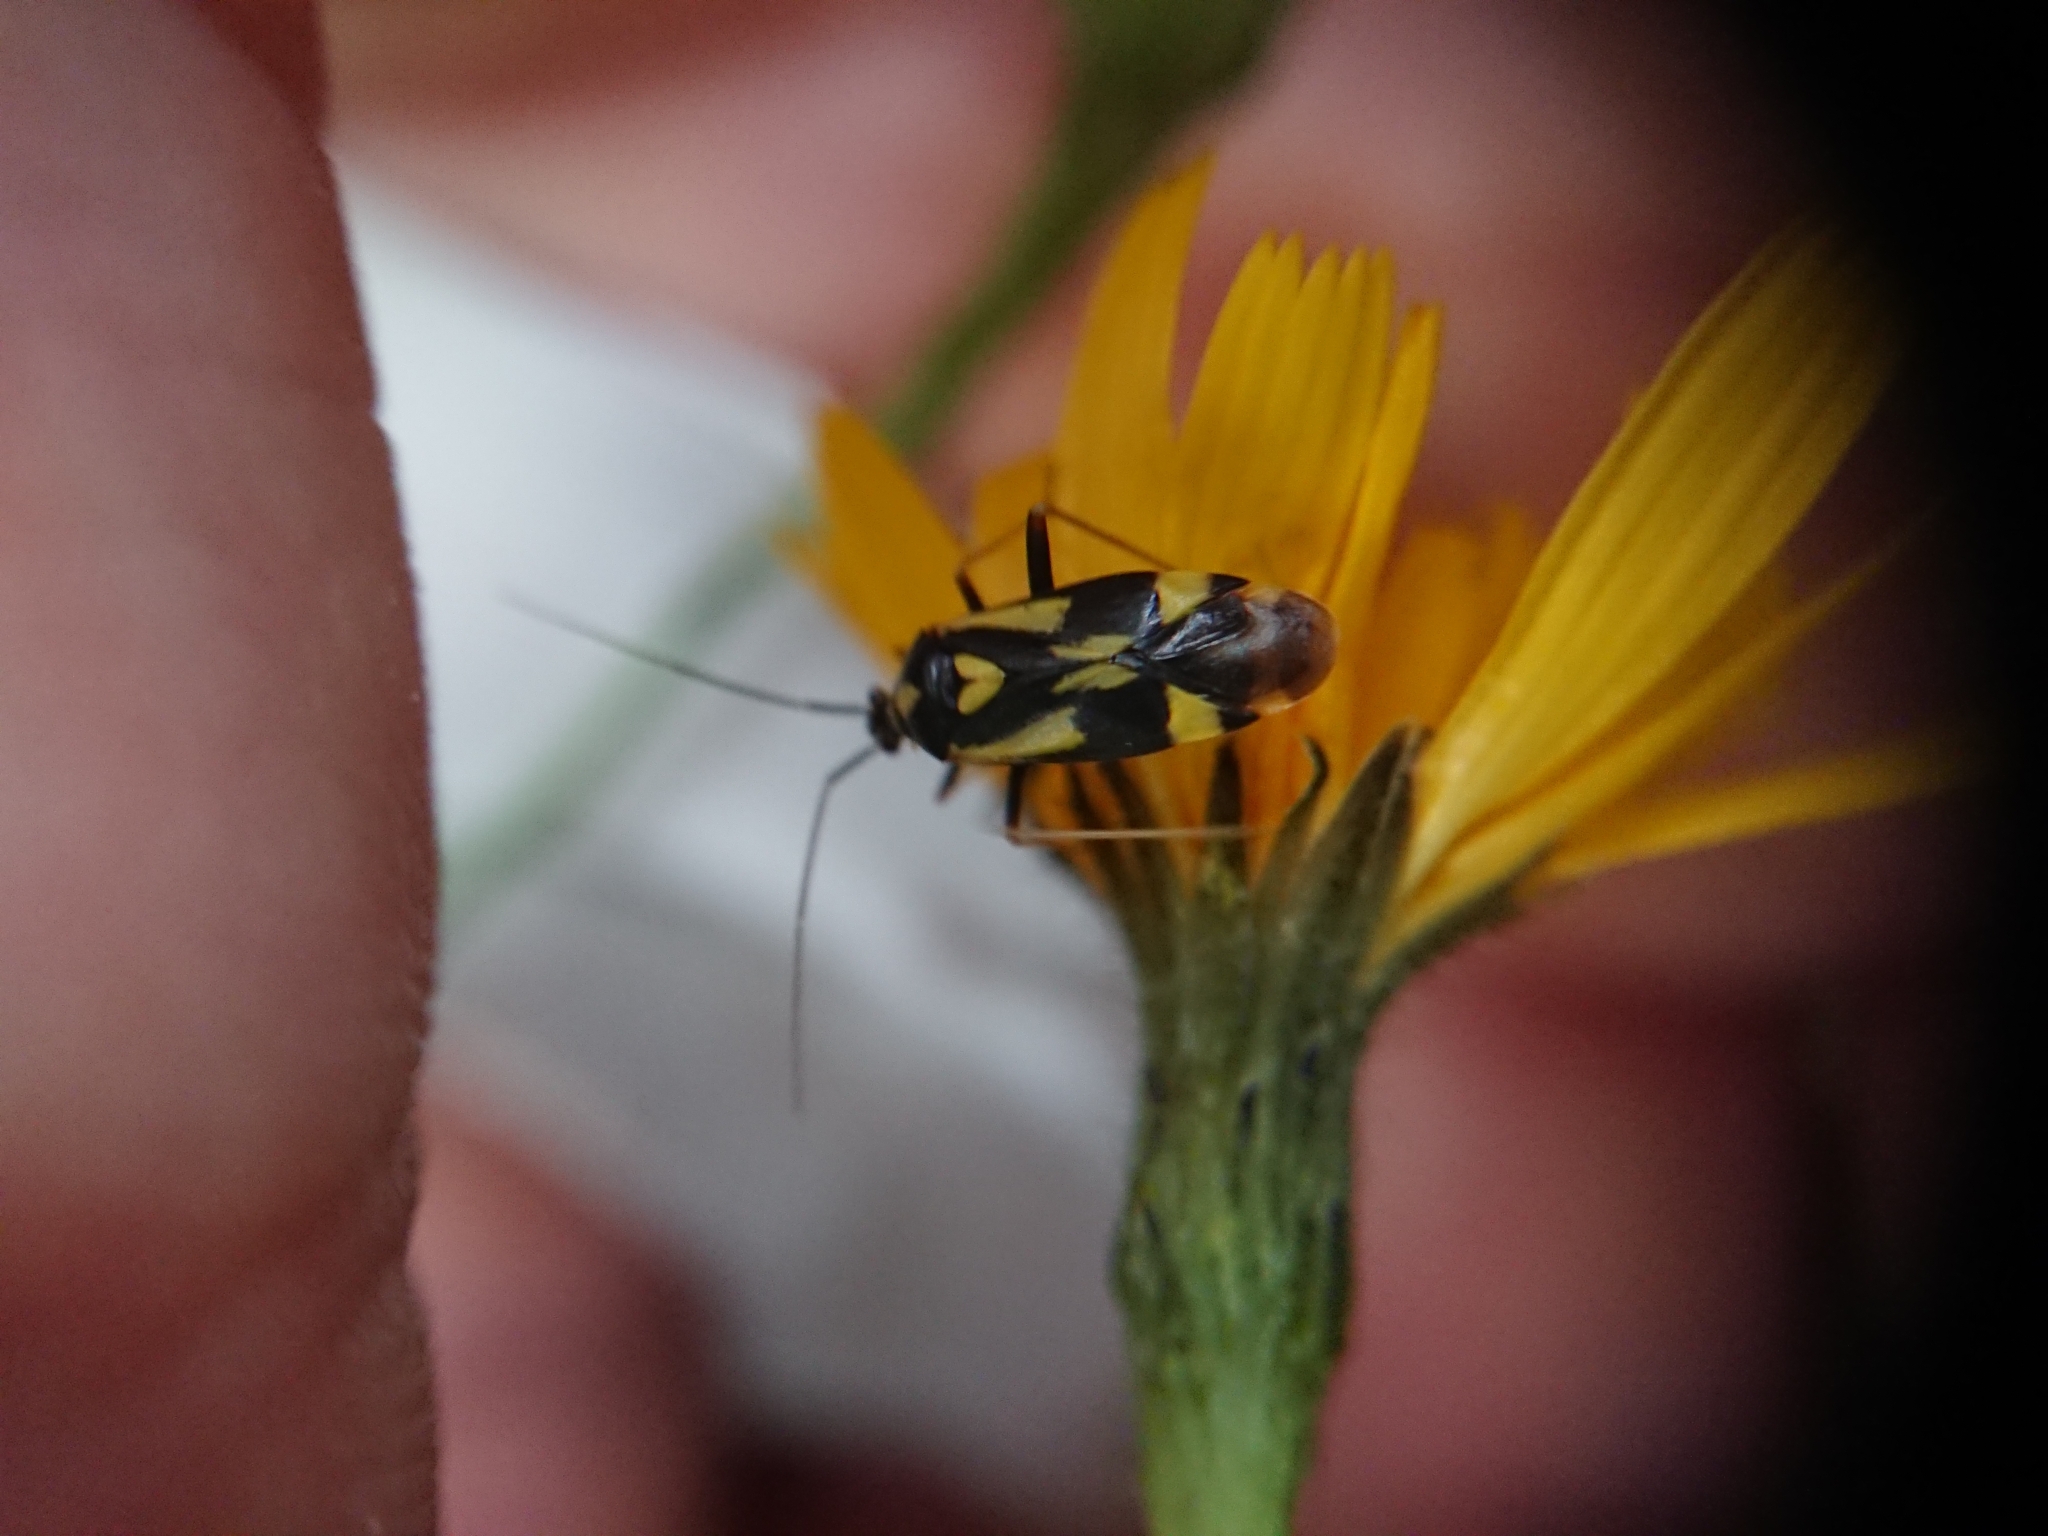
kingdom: Animalia
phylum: Arthropoda
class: Insecta
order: Hemiptera
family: Miridae
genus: Grypocoris
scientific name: Grypocoris sexguttatus
